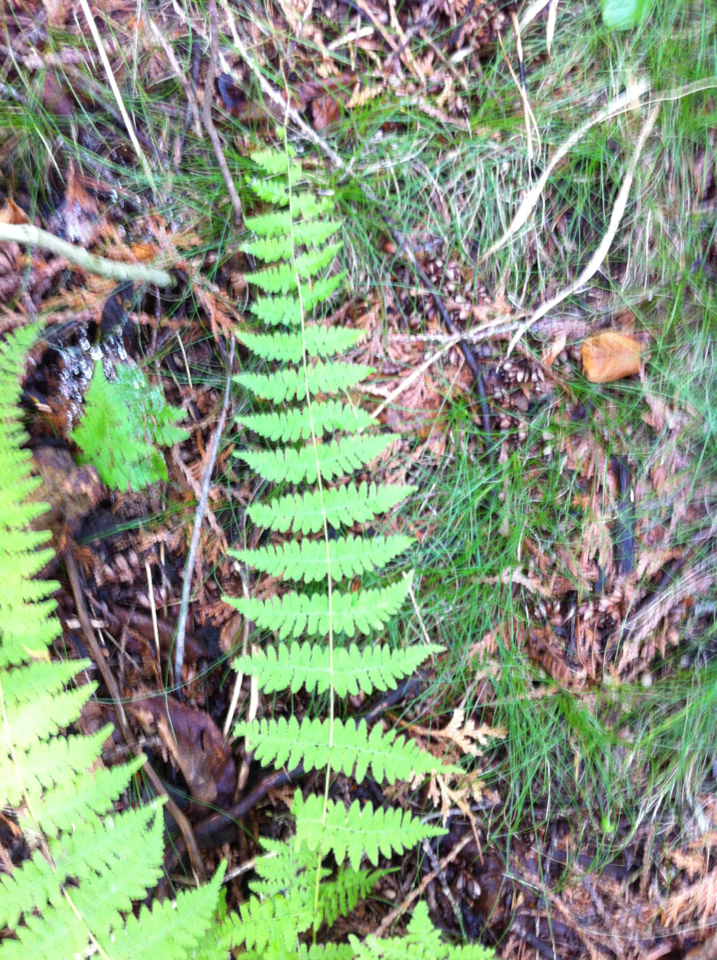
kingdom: Plantae
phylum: Tracheophyta
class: Polypodiopsida
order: Polypodiales
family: Cystopteridaceae
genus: Cystopteris
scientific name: Cystopteris bulbifera
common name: Bulblet bladder fern
